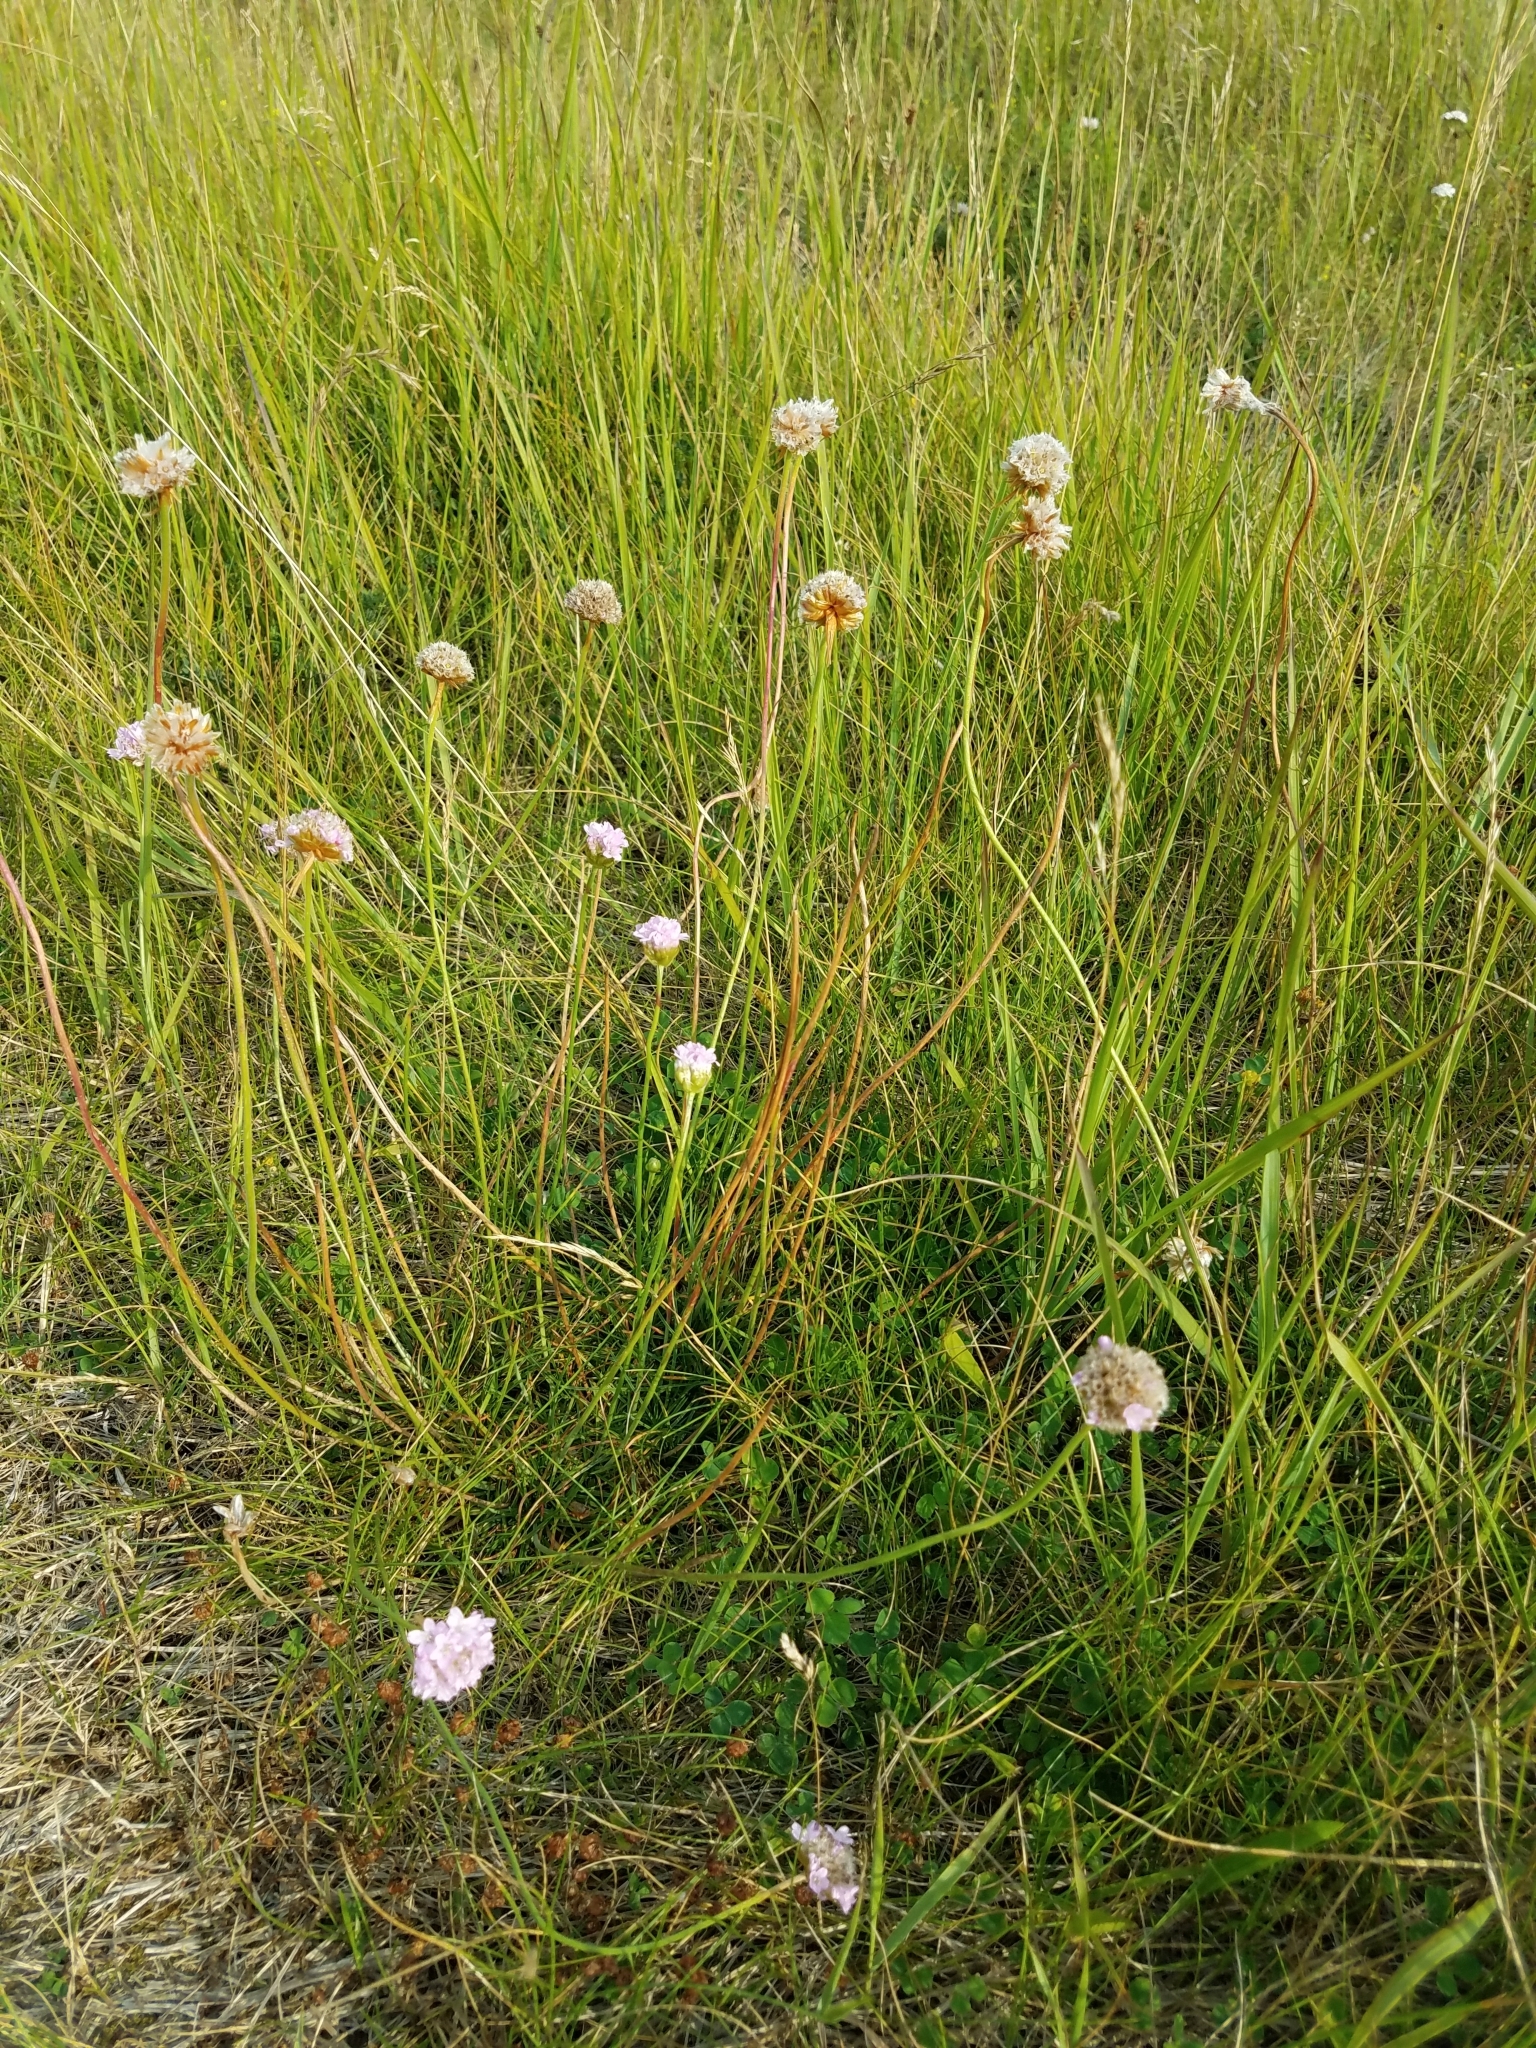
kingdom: Plantae
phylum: Tracheophyta
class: Magnoliopsida
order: Caryophyllales
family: Plumbaginaceae
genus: Armeria
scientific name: Armeria maritima
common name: Thrift
